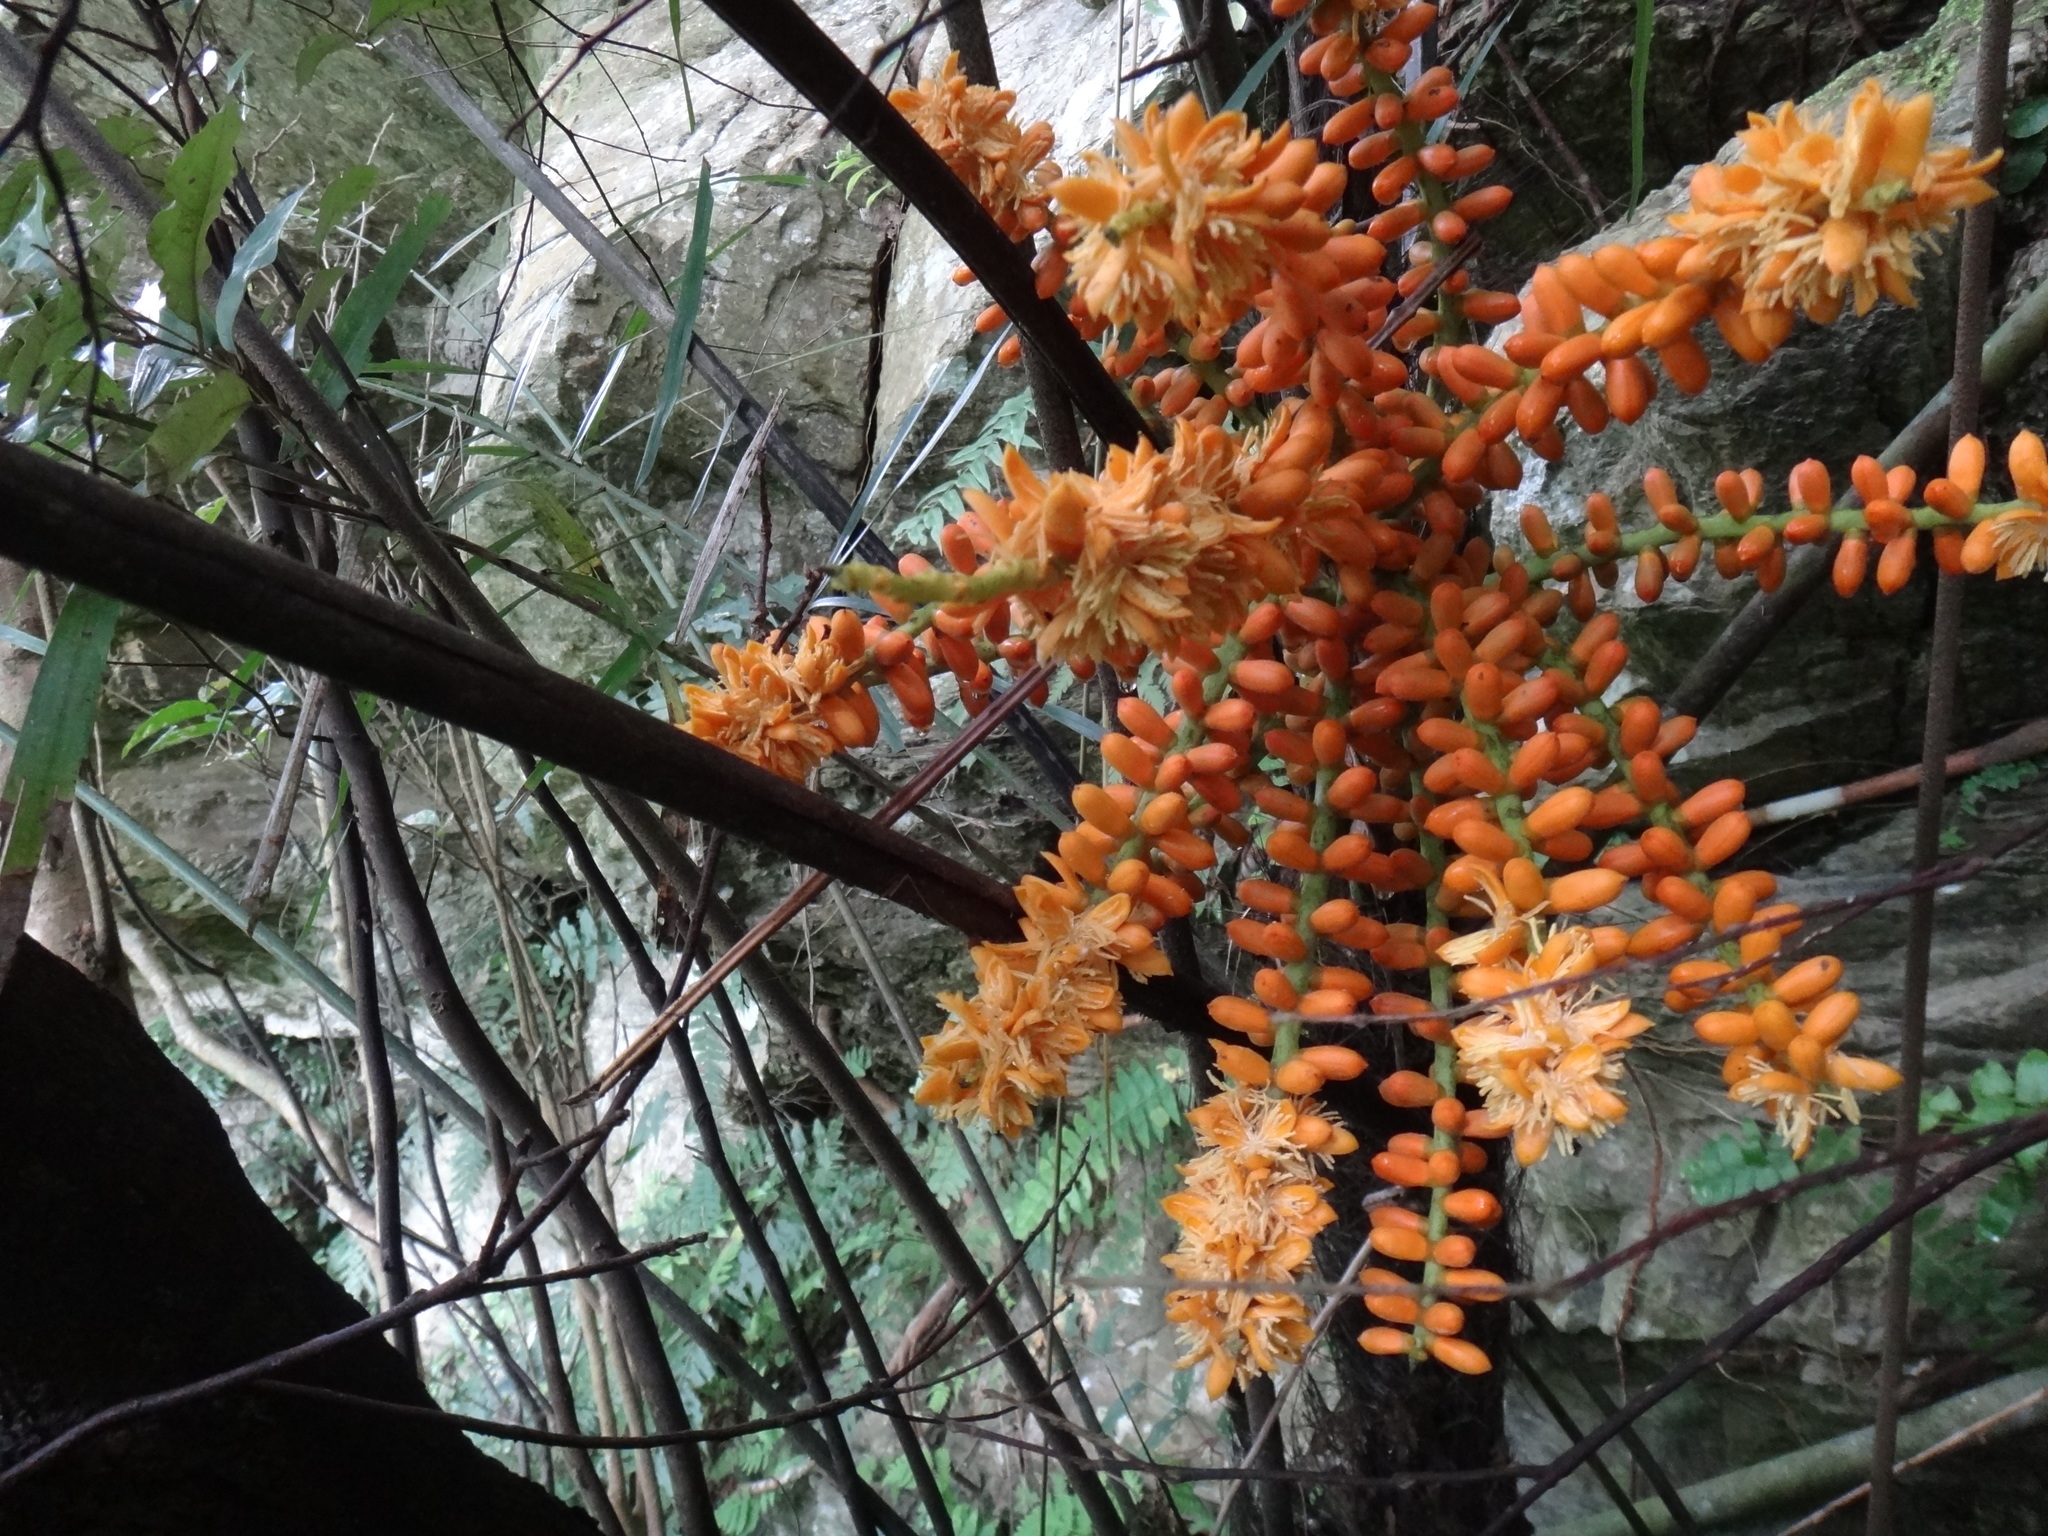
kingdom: Plantae
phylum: Tracheophyta
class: Liliopsida
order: Arecales
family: Arecaceae
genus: Arenga
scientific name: Arenga engleri
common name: Formosan sugar palm
